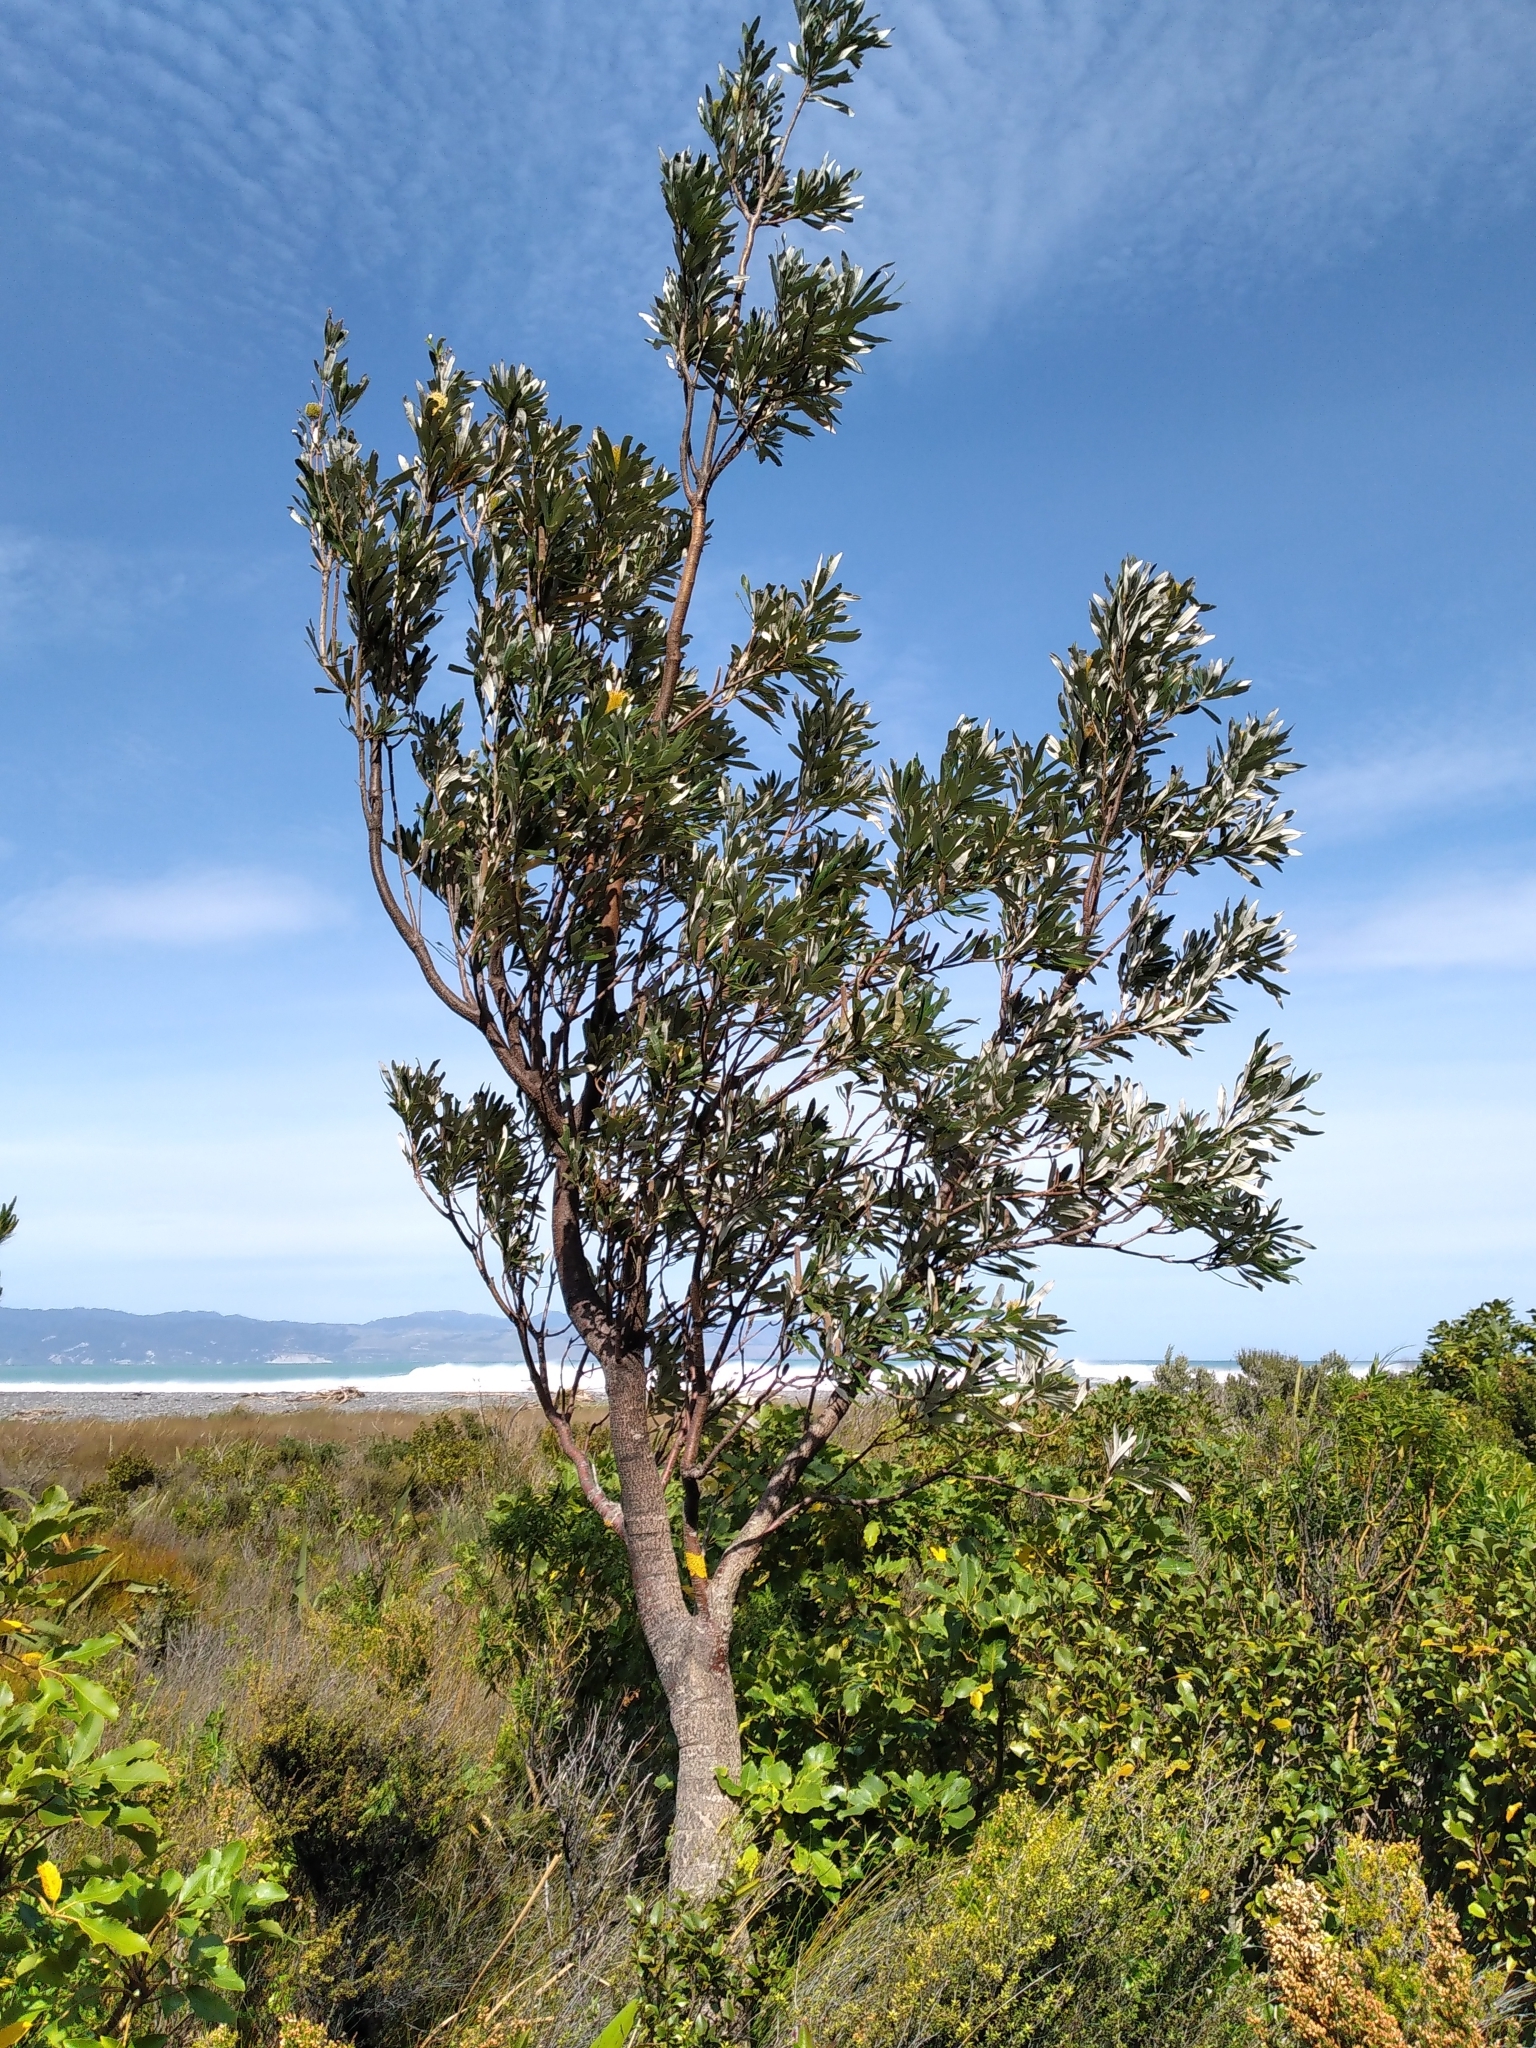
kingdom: Plantae
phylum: Tracheophyta
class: Magnoliopsida
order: Proteales
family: Proteaceae
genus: Banksia
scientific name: Banksia integrifolia
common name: White-honeysuckle
